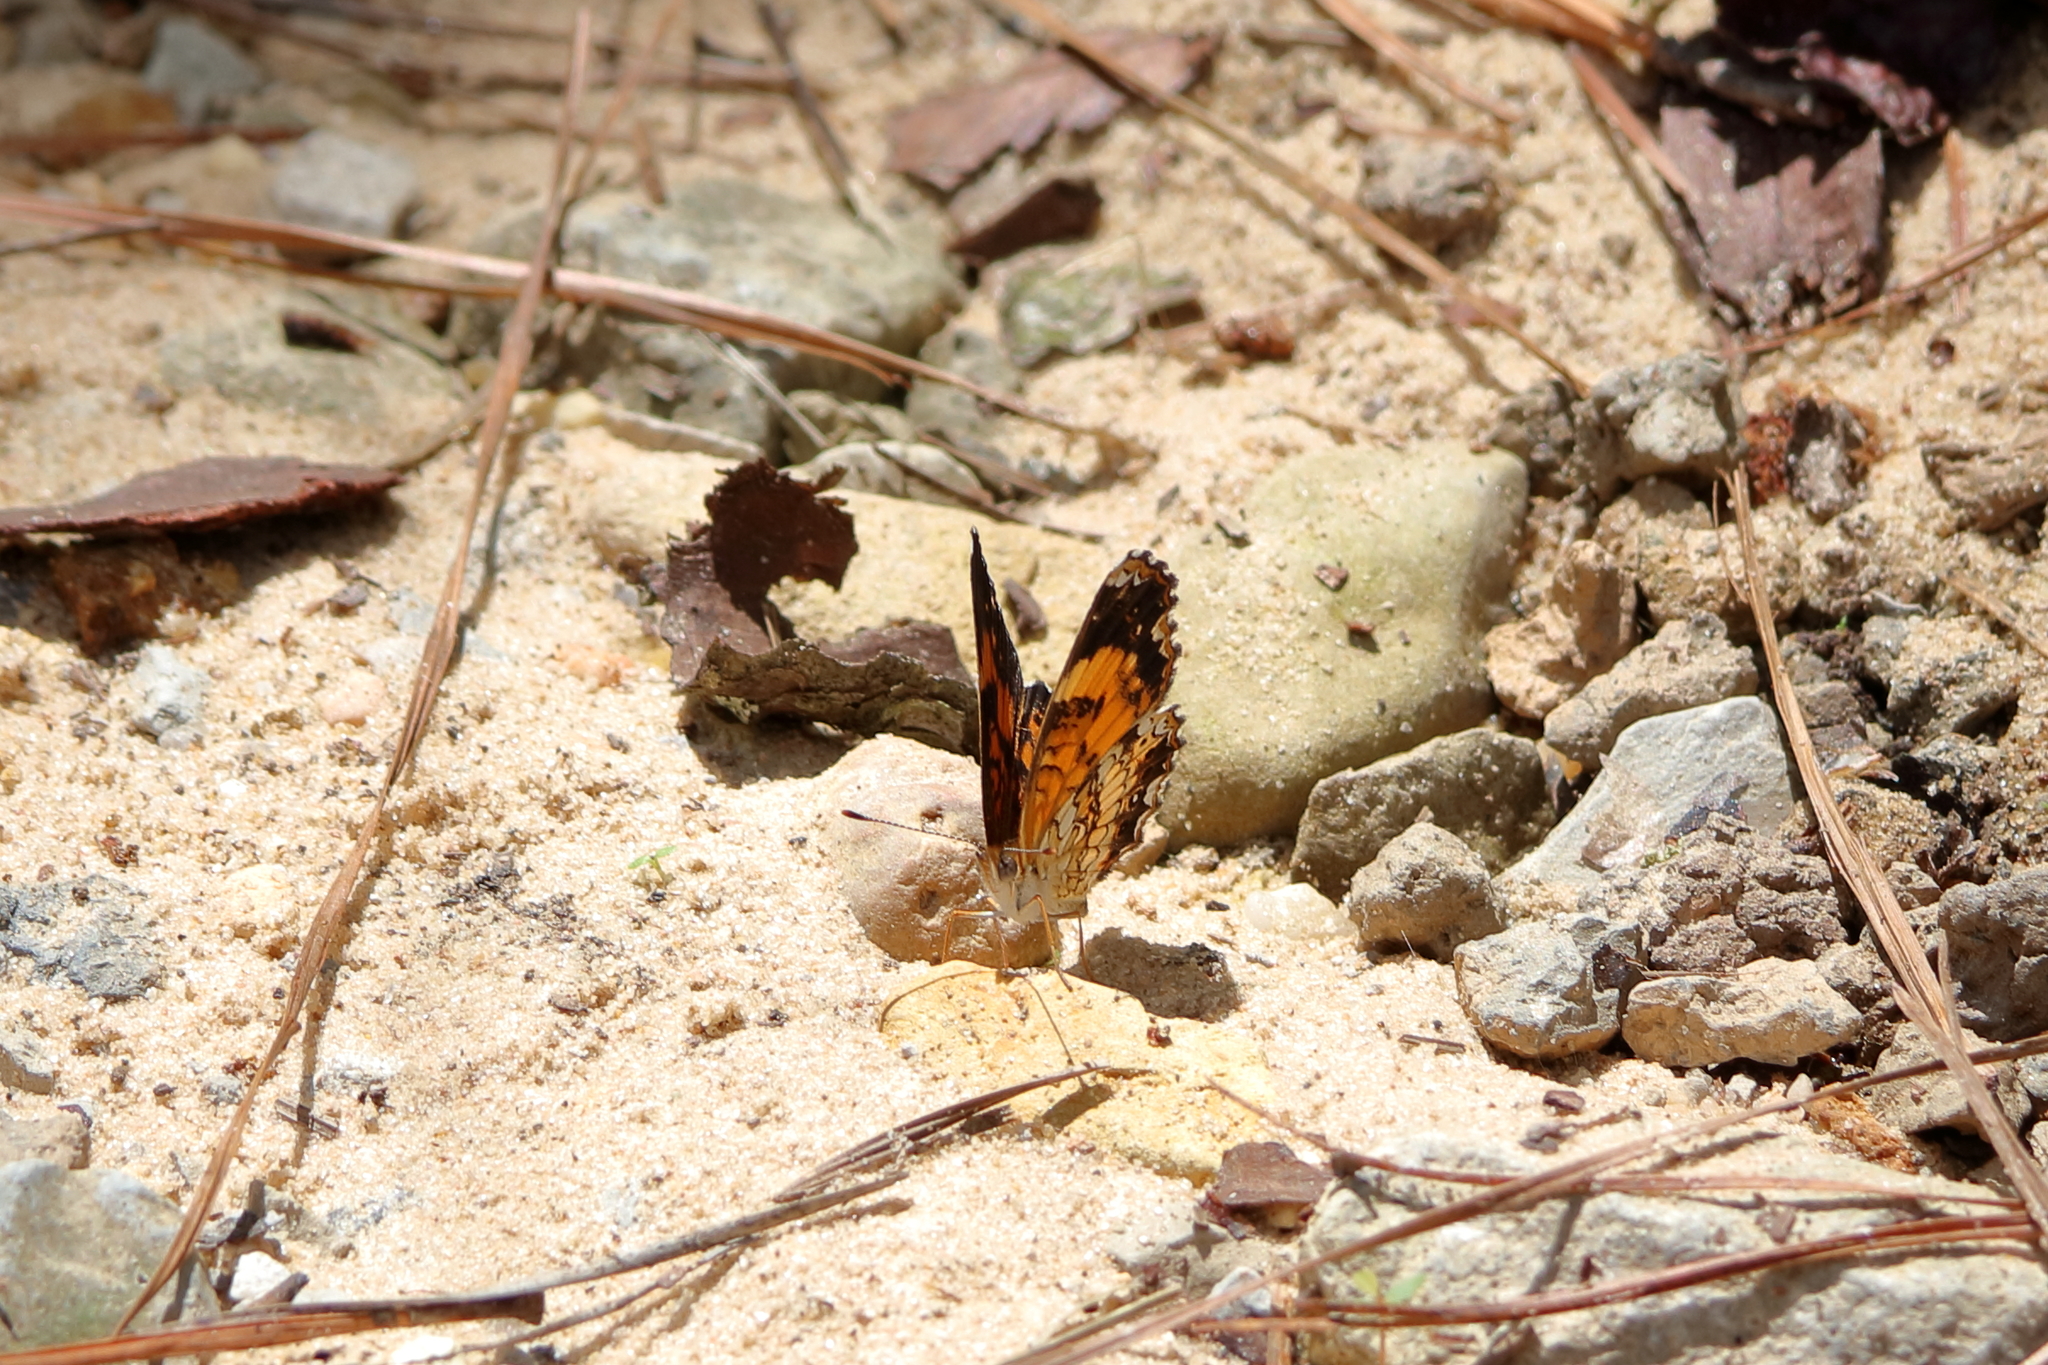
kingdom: Animalia
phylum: Arthropoda
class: Insecta
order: Lepidoptera
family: Nymphalidae
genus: Chlosyne
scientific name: Chlosyne nycteis
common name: Silvery checkerspot
